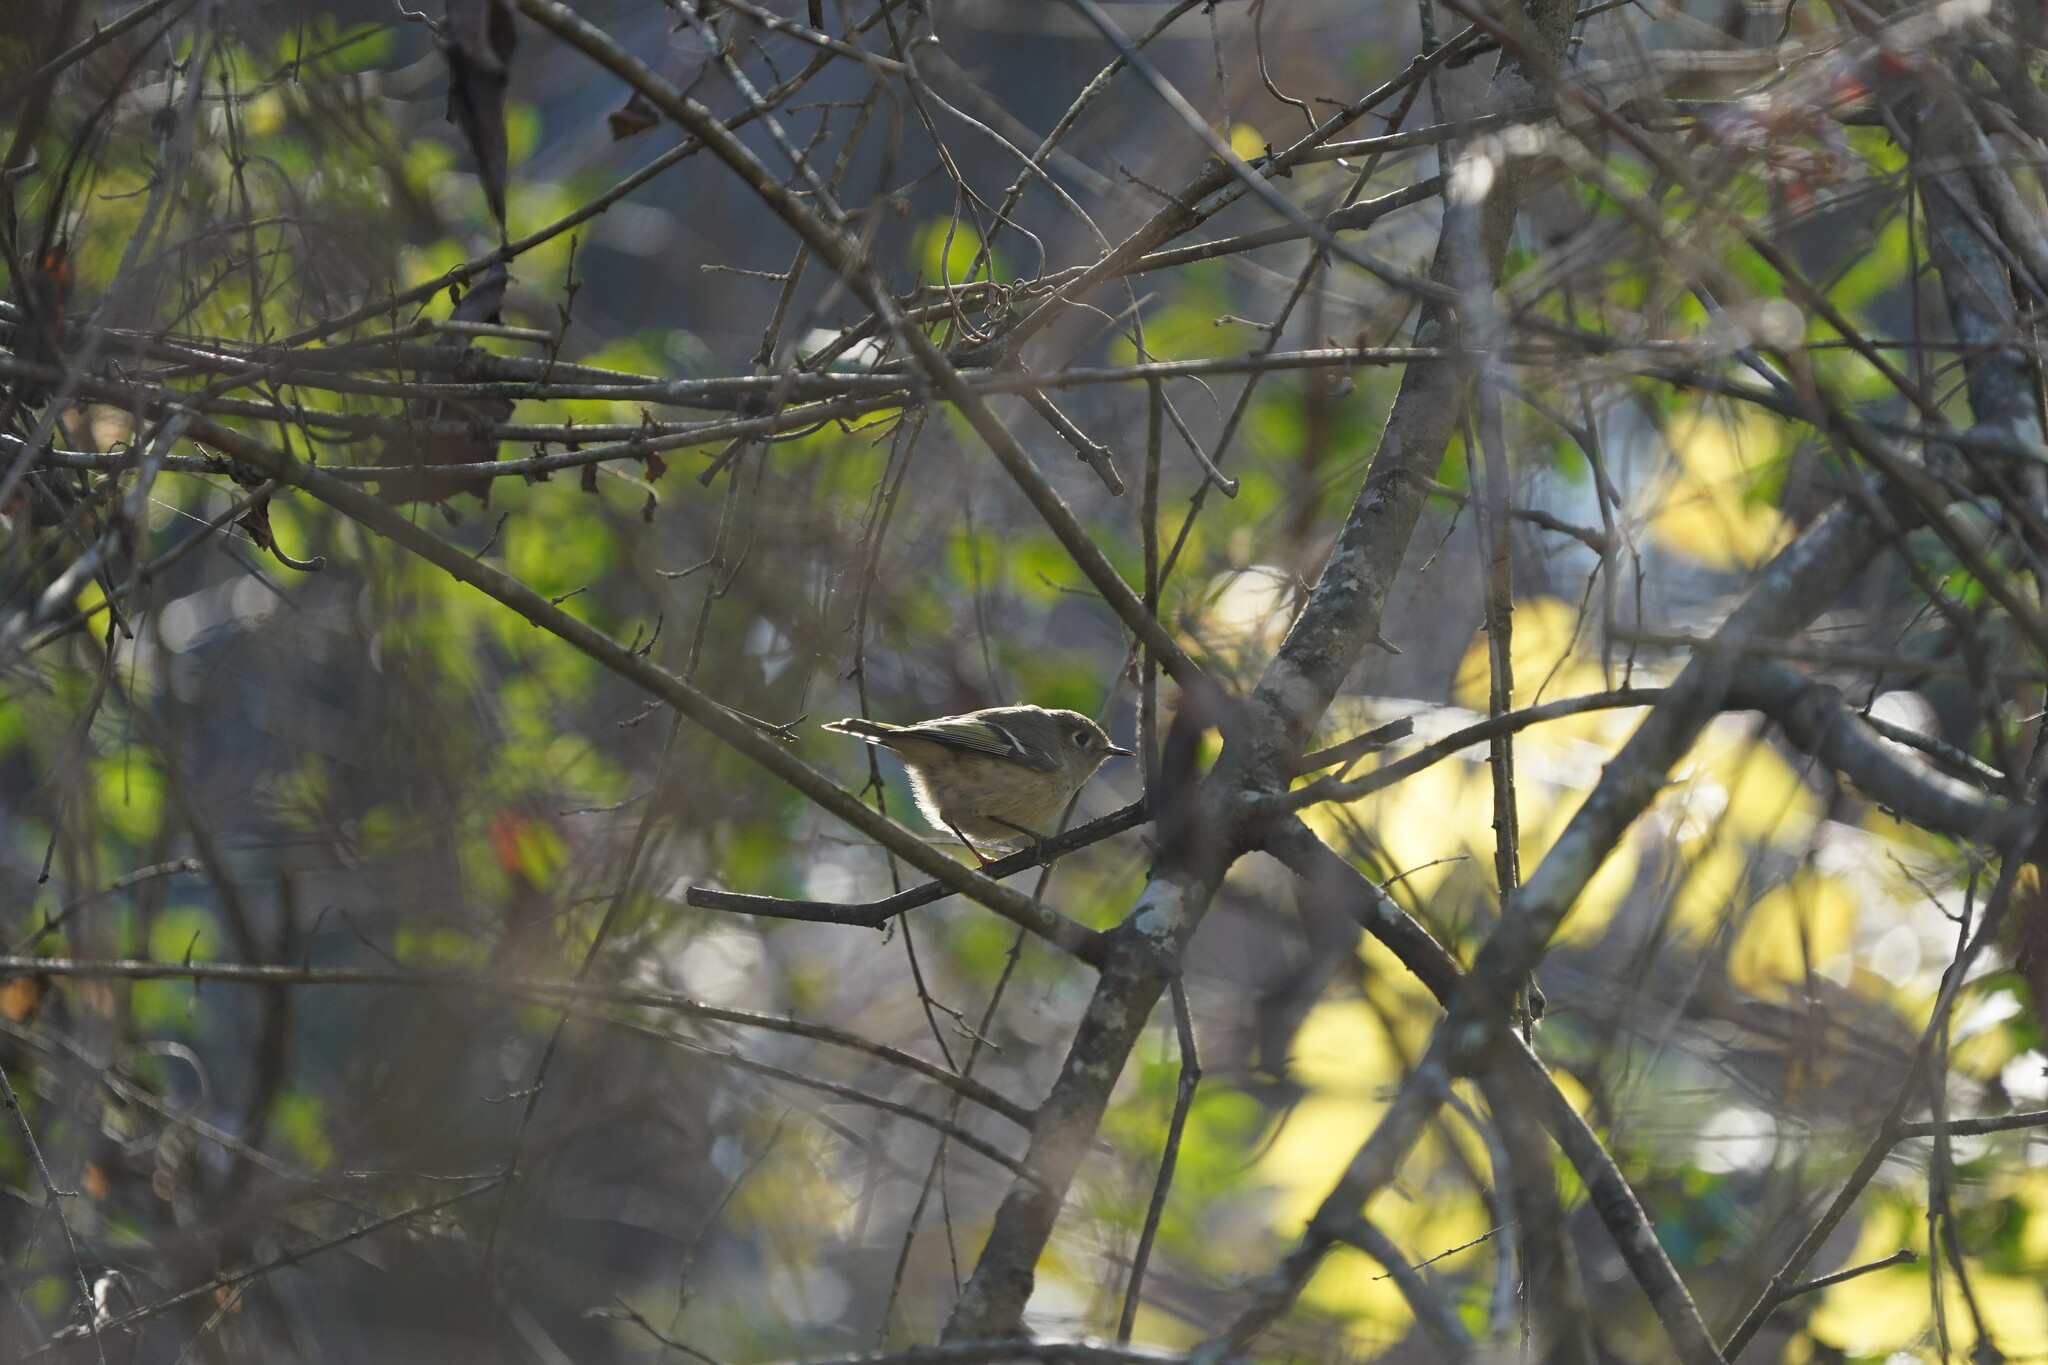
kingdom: Animalia
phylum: Chordata
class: Aves
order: Passeriformes
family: Regulidae
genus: Regulus
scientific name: Regulus calendula
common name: Ruby-crowned kinglet
